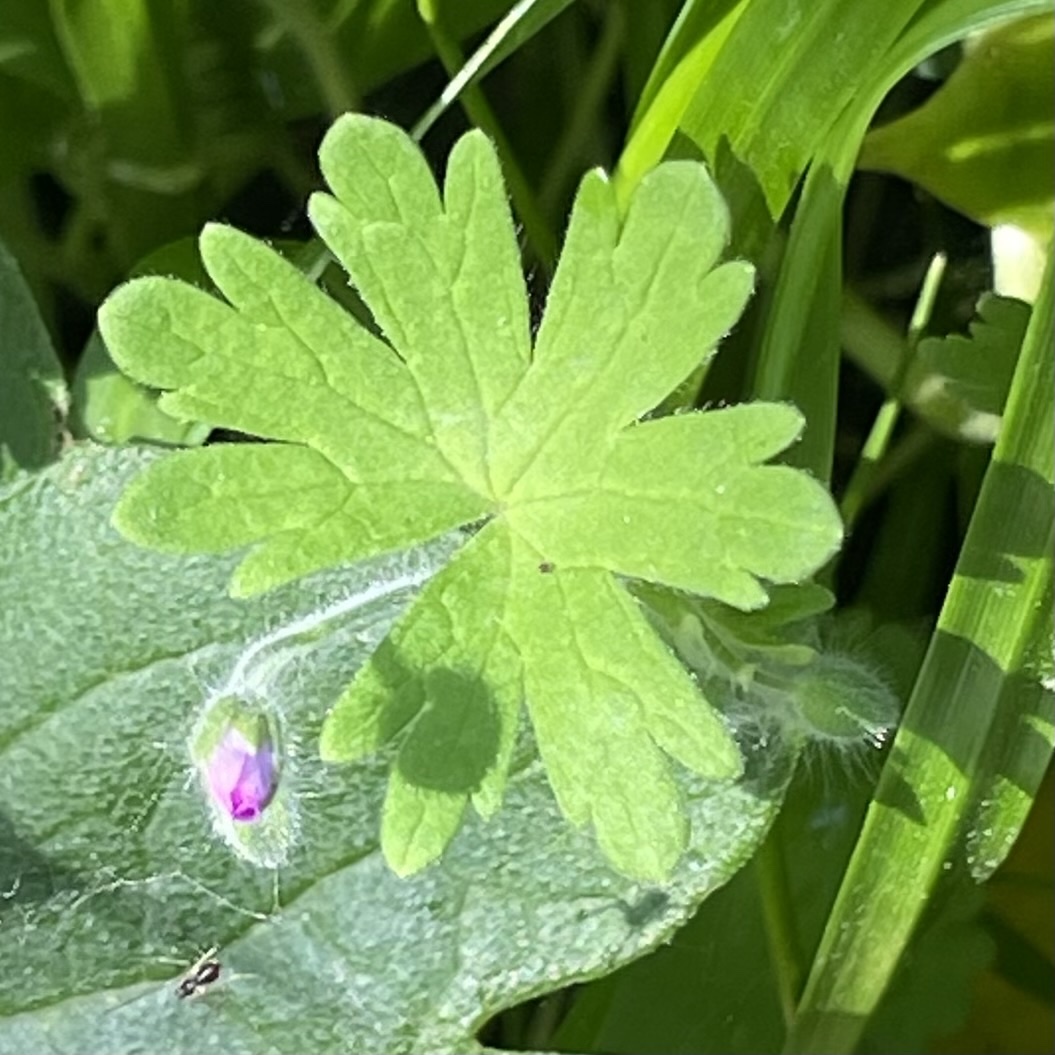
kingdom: Plantae
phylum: Tracheophyta
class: Magnoliopsida
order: Geraniales
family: Geraniaceae
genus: Geranium
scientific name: Geranium molle
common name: Dove's-foot crane's-bill
